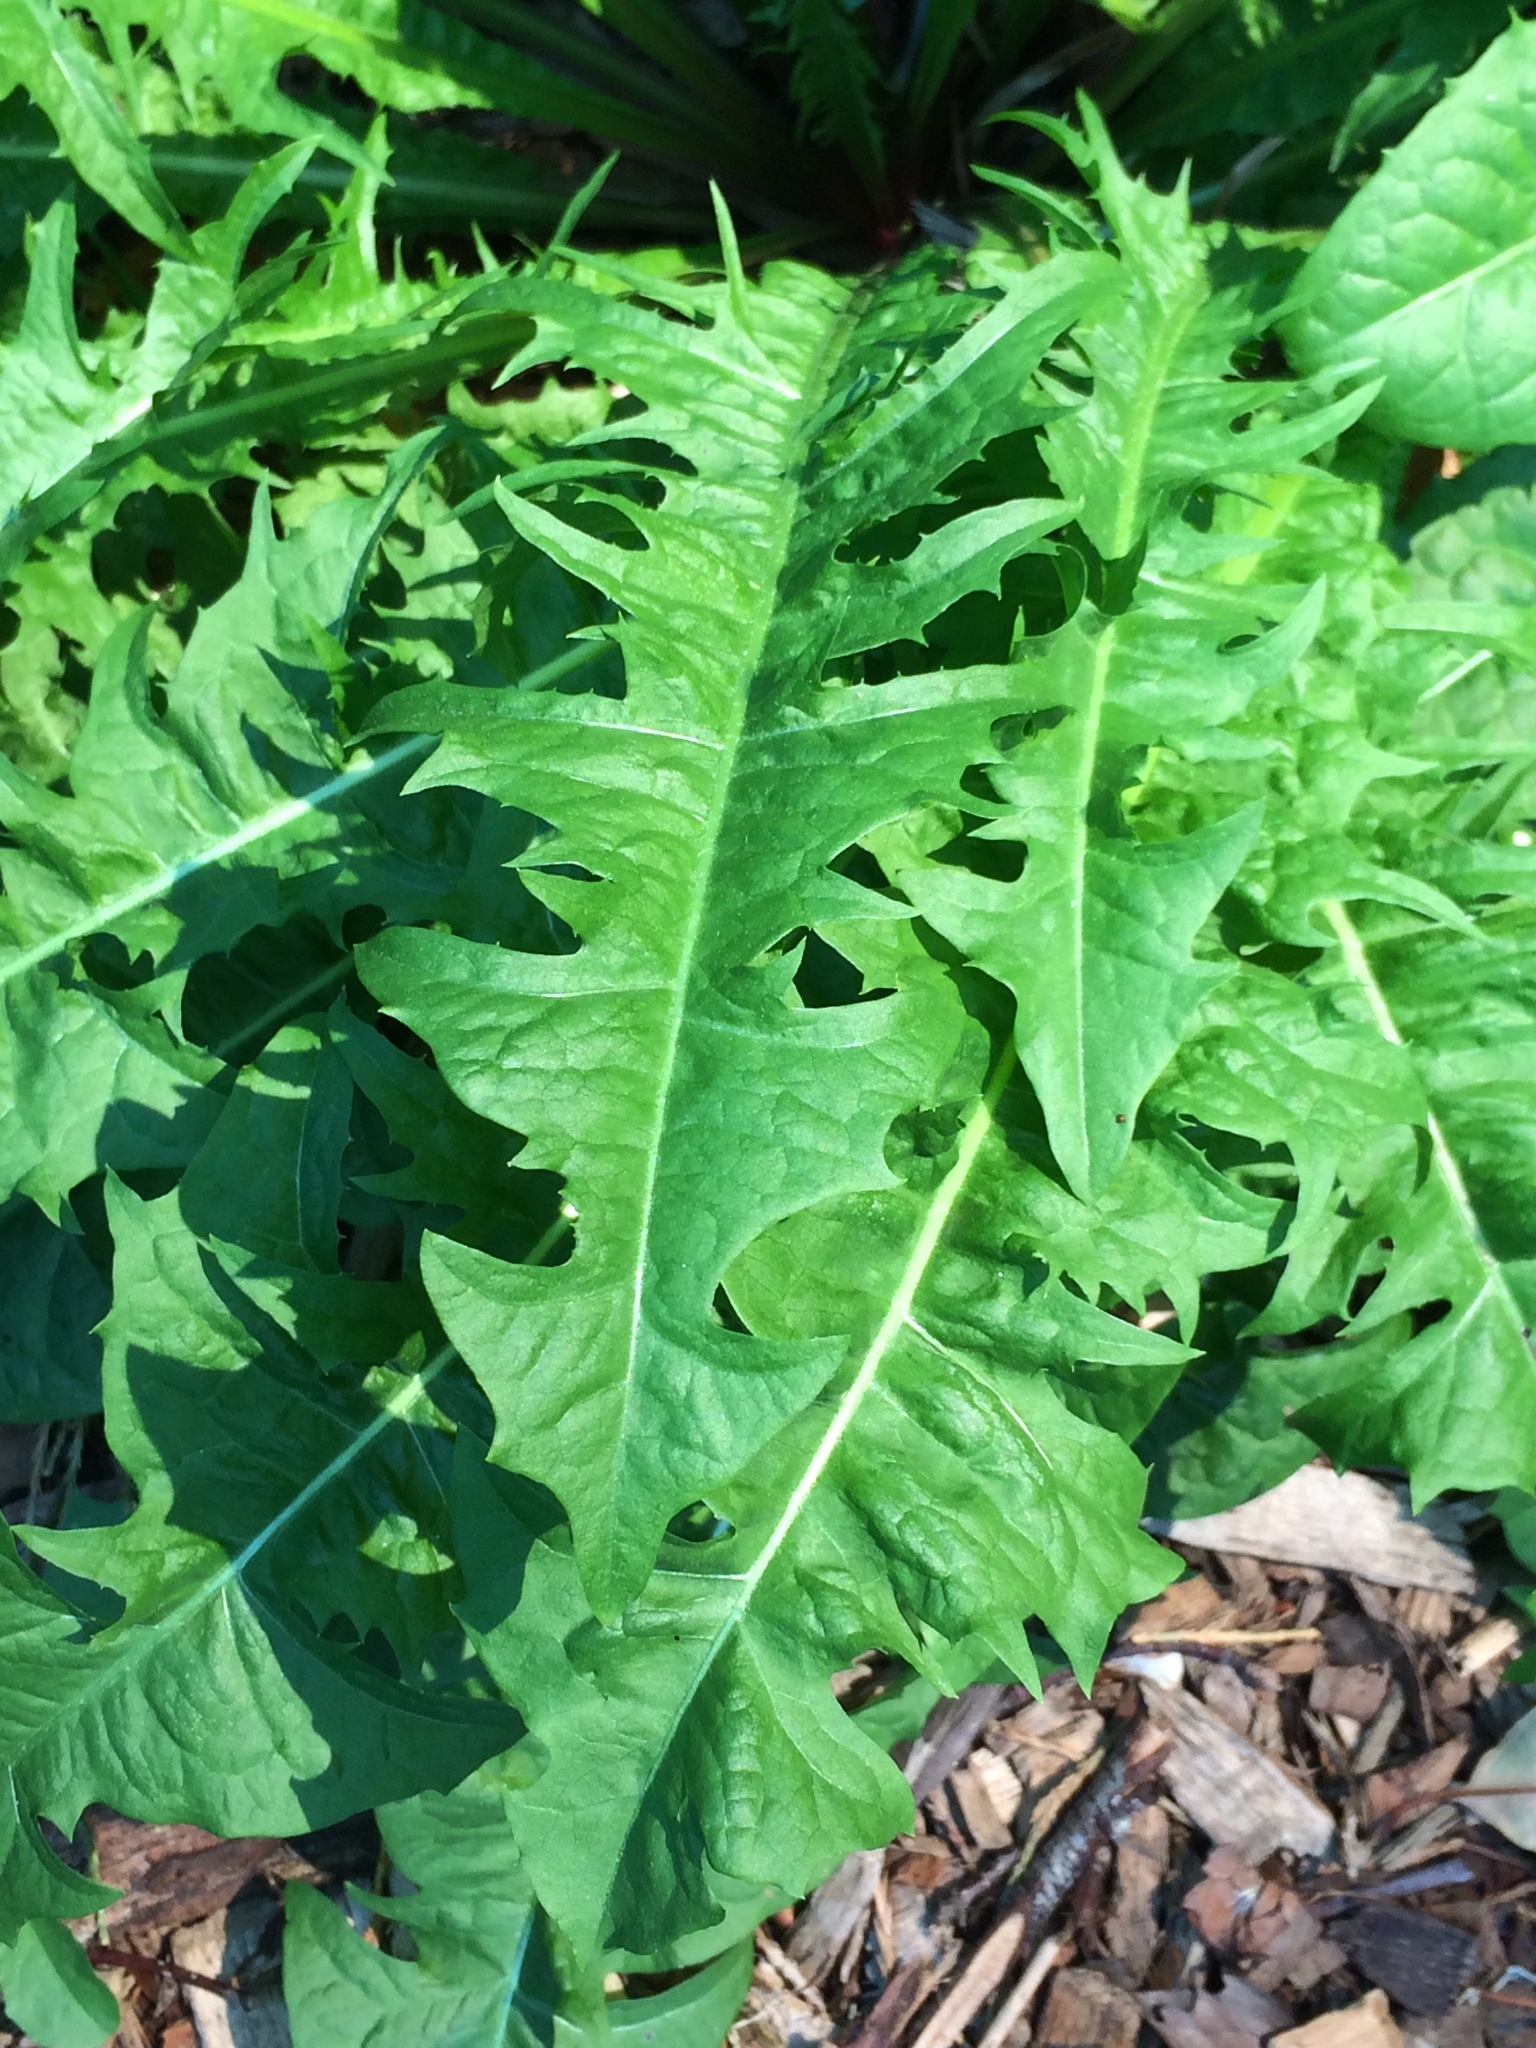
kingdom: Plantae
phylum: Tracheophyta
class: Magnoliopsida
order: Asterales
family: Asteraceae
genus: Taraxacum
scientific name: Taraxacum officinale
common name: Common dandelion
